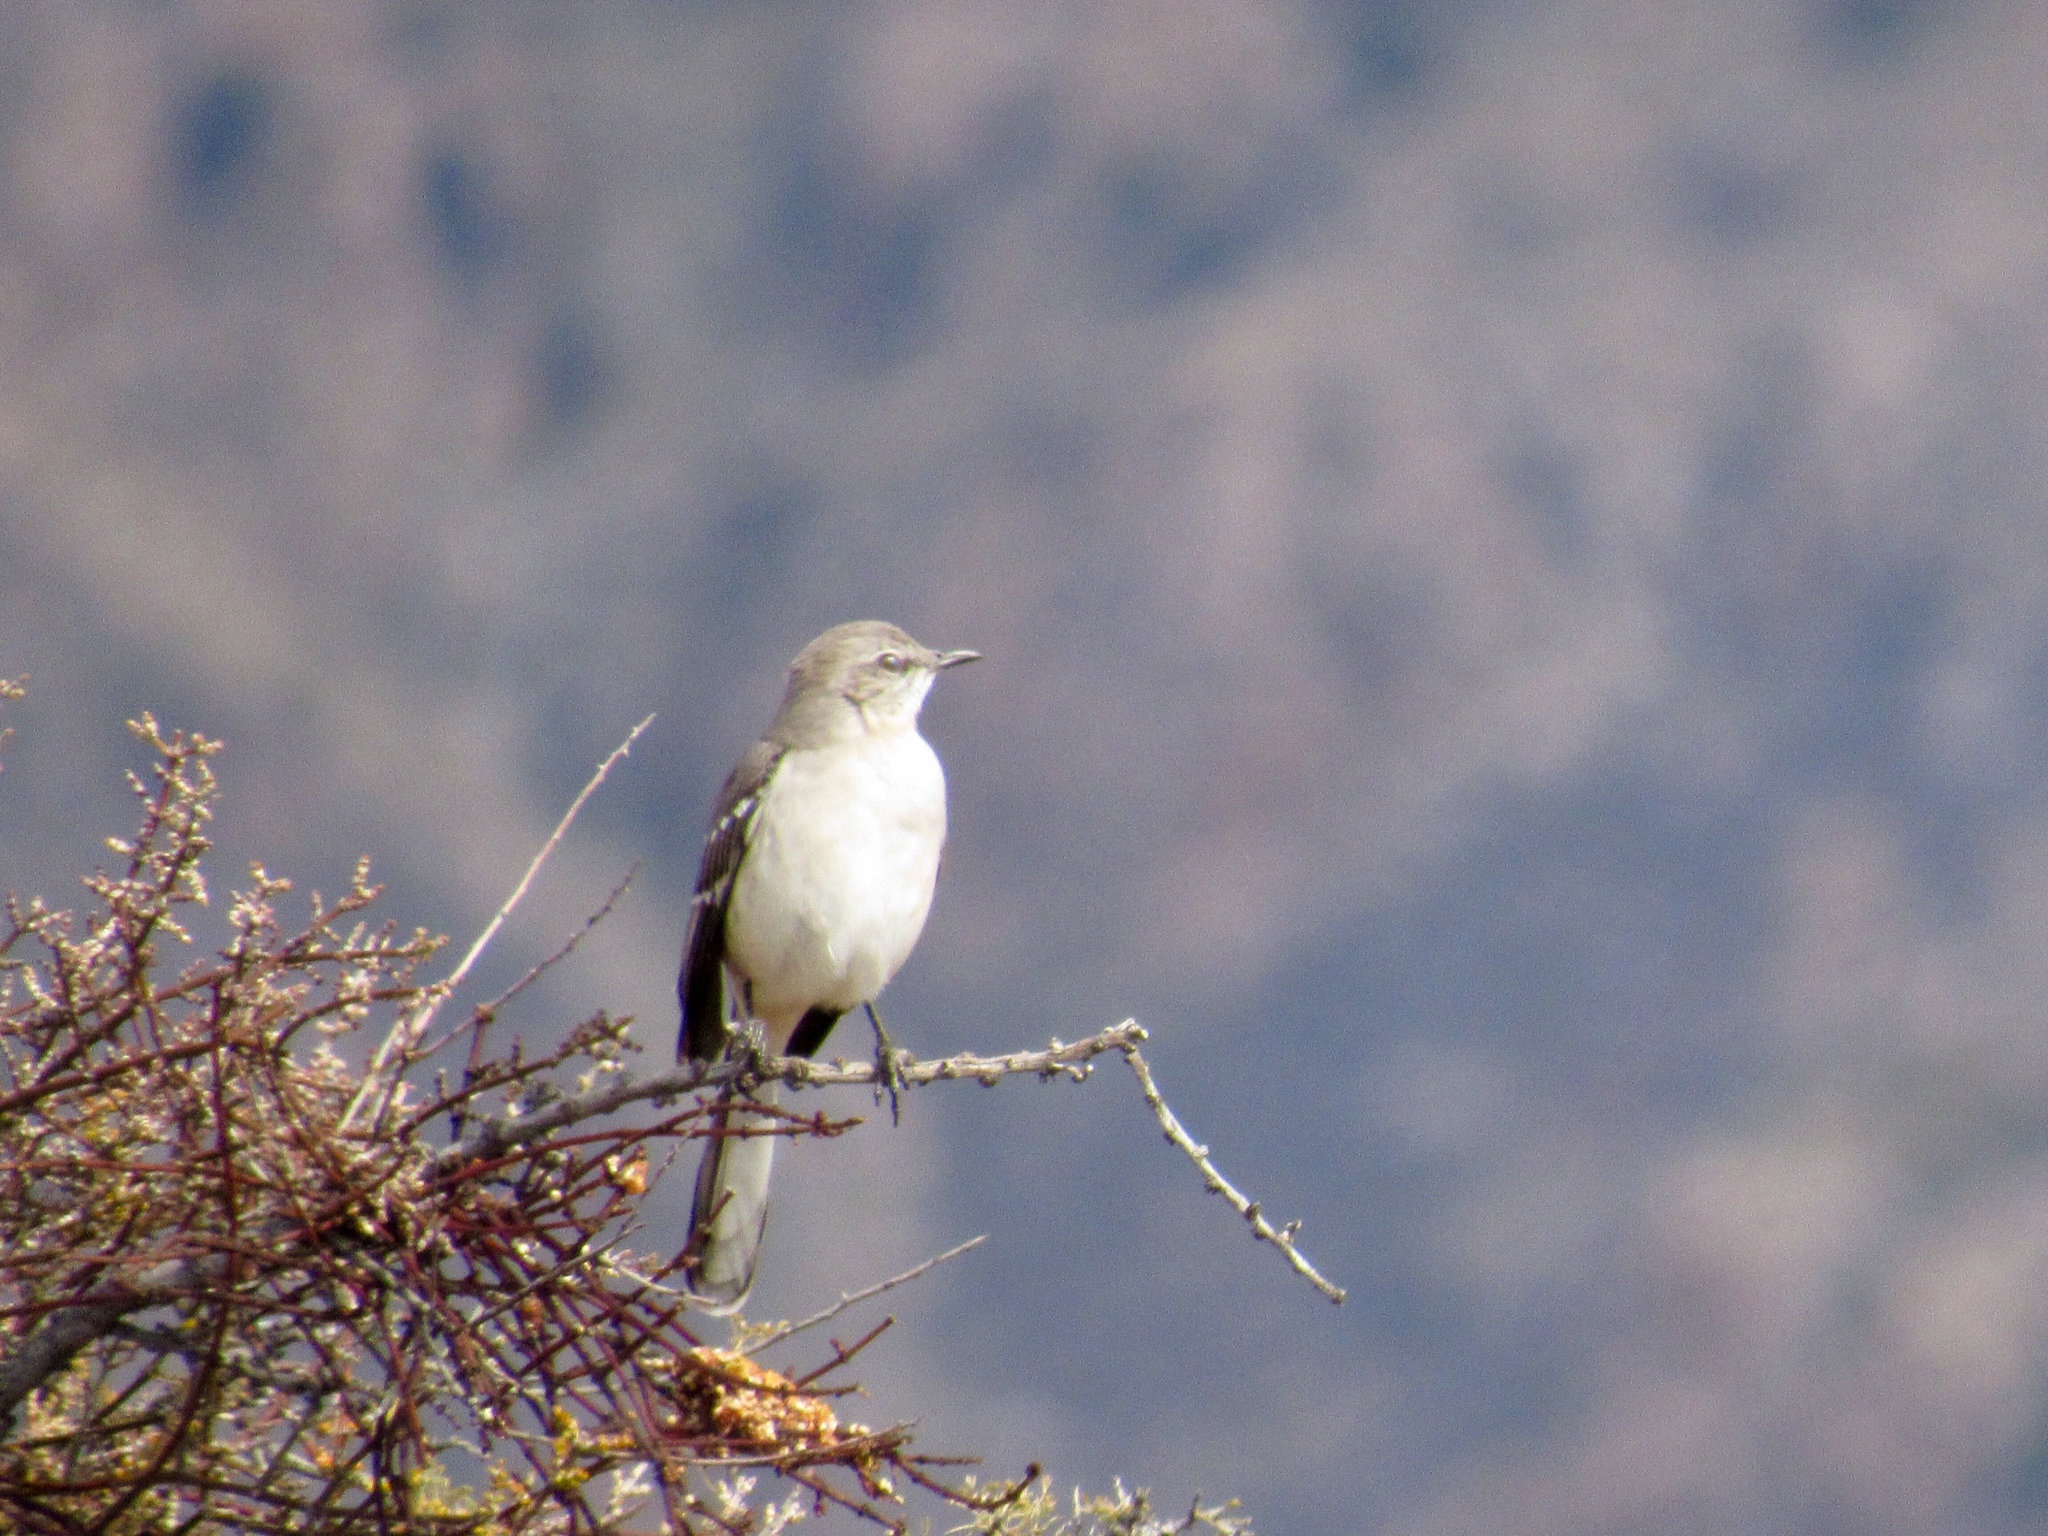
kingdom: Animalia
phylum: Chordata
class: Aves
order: Passeriformes
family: Mimidae
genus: Mimus
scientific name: Mimus polyglottos
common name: Northern mockingbird
